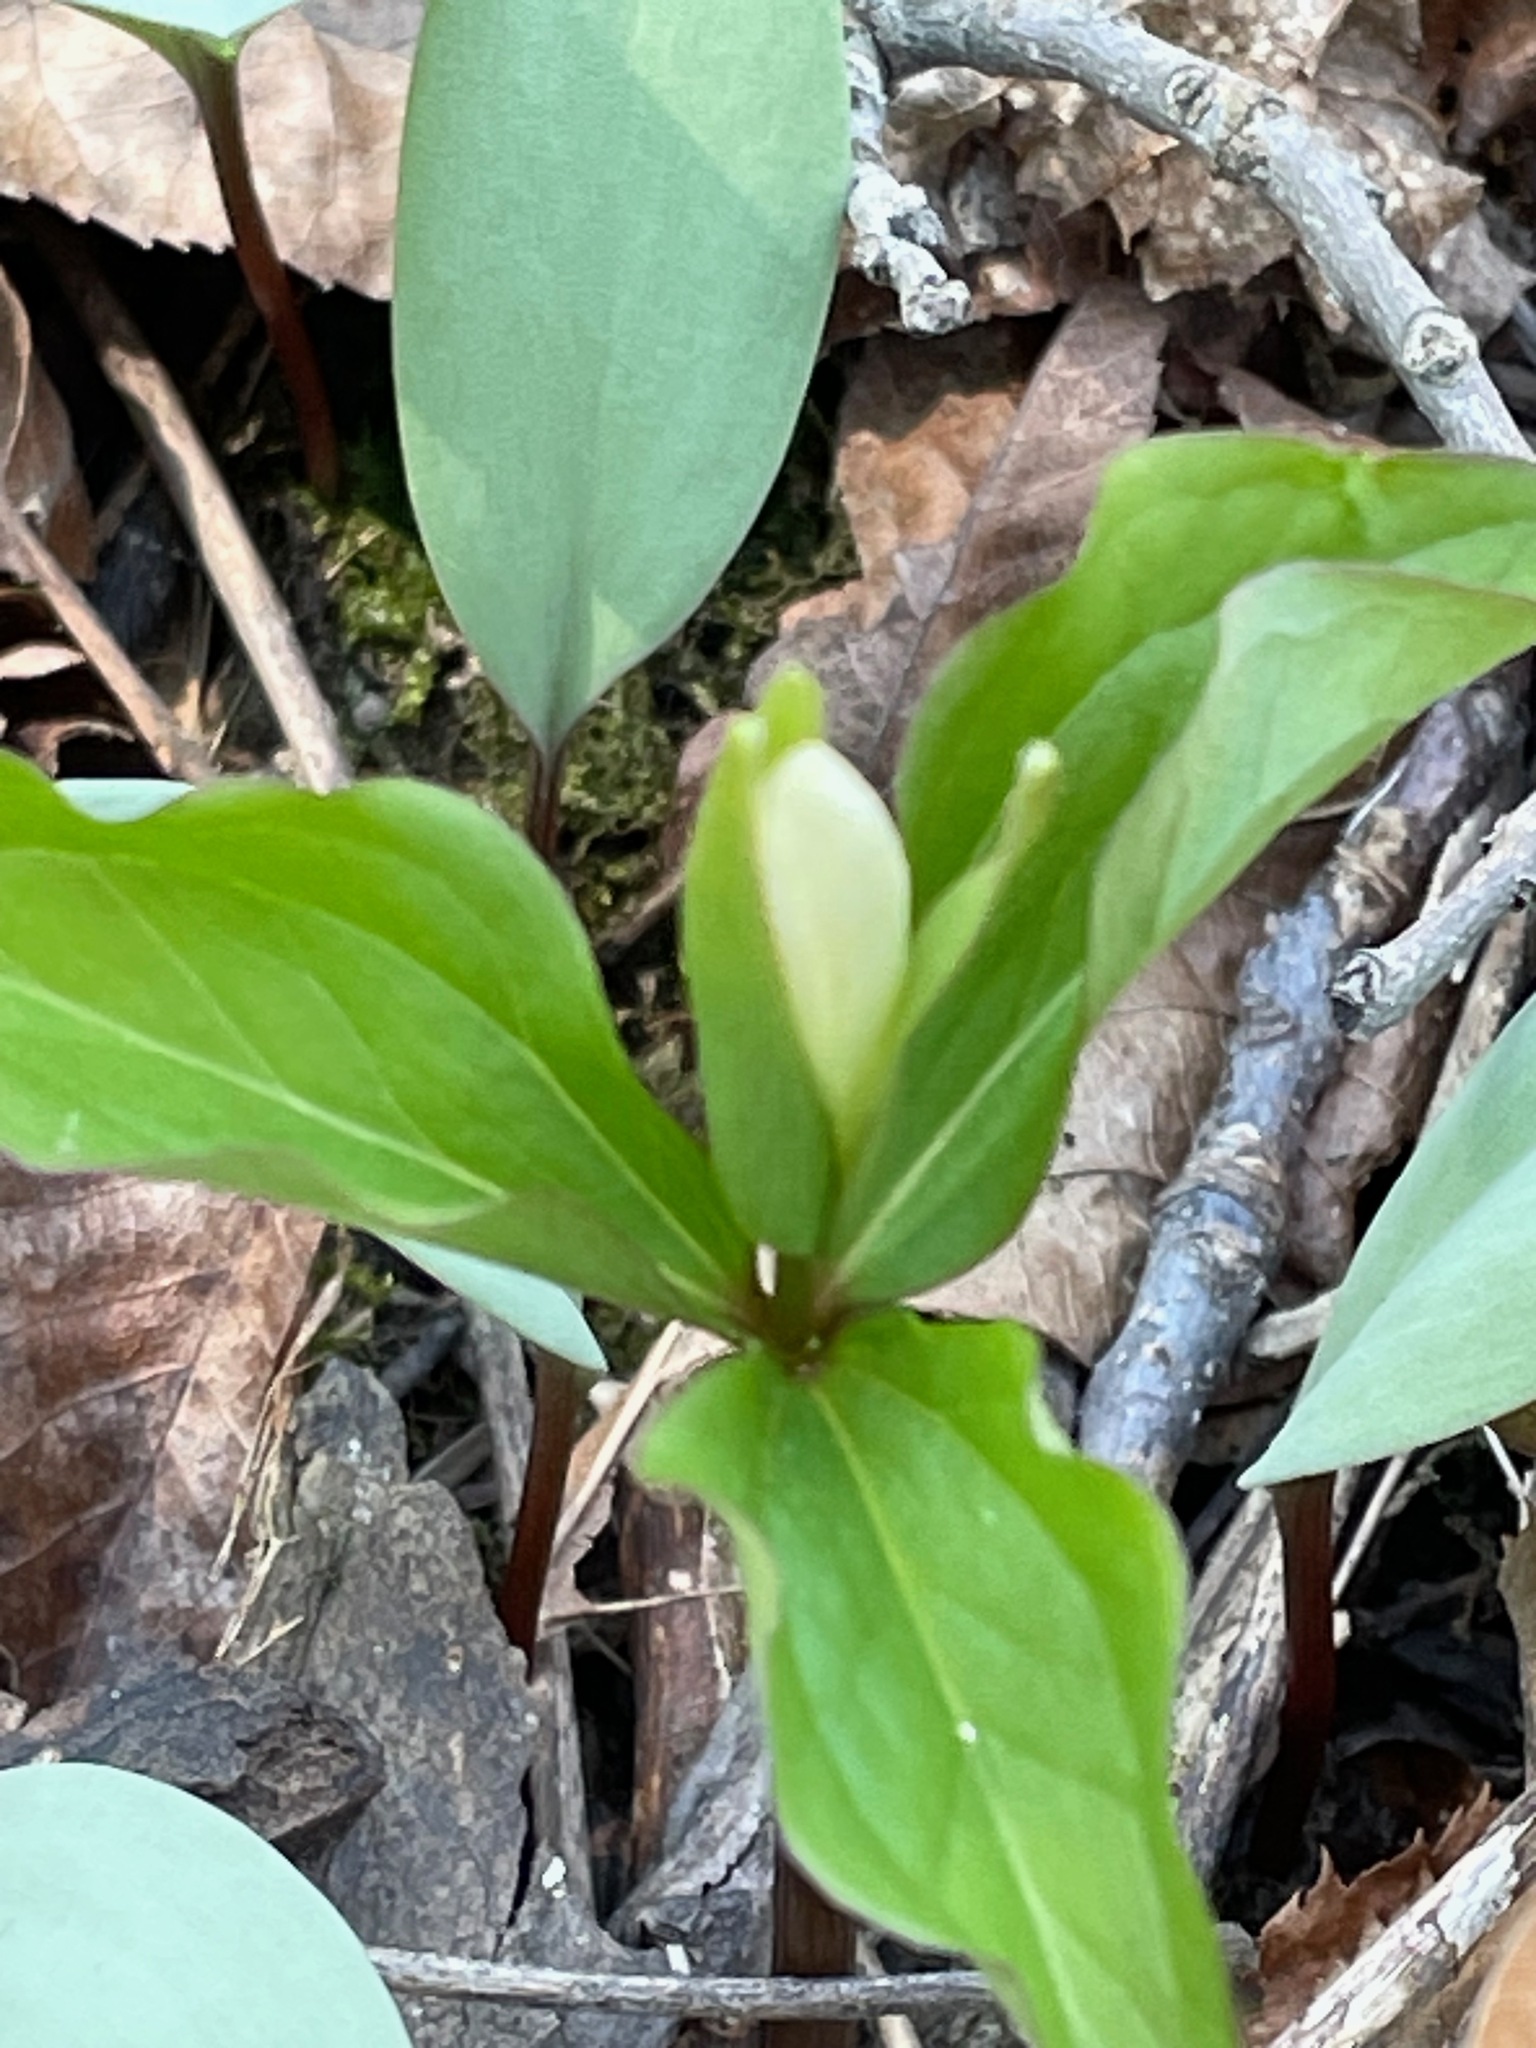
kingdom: Plantae
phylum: Tracheophyta
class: Liliopsida
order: Liliales
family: Melanthiaceae
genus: Trillium
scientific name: Trillium grandiflorum
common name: Great white trillium
